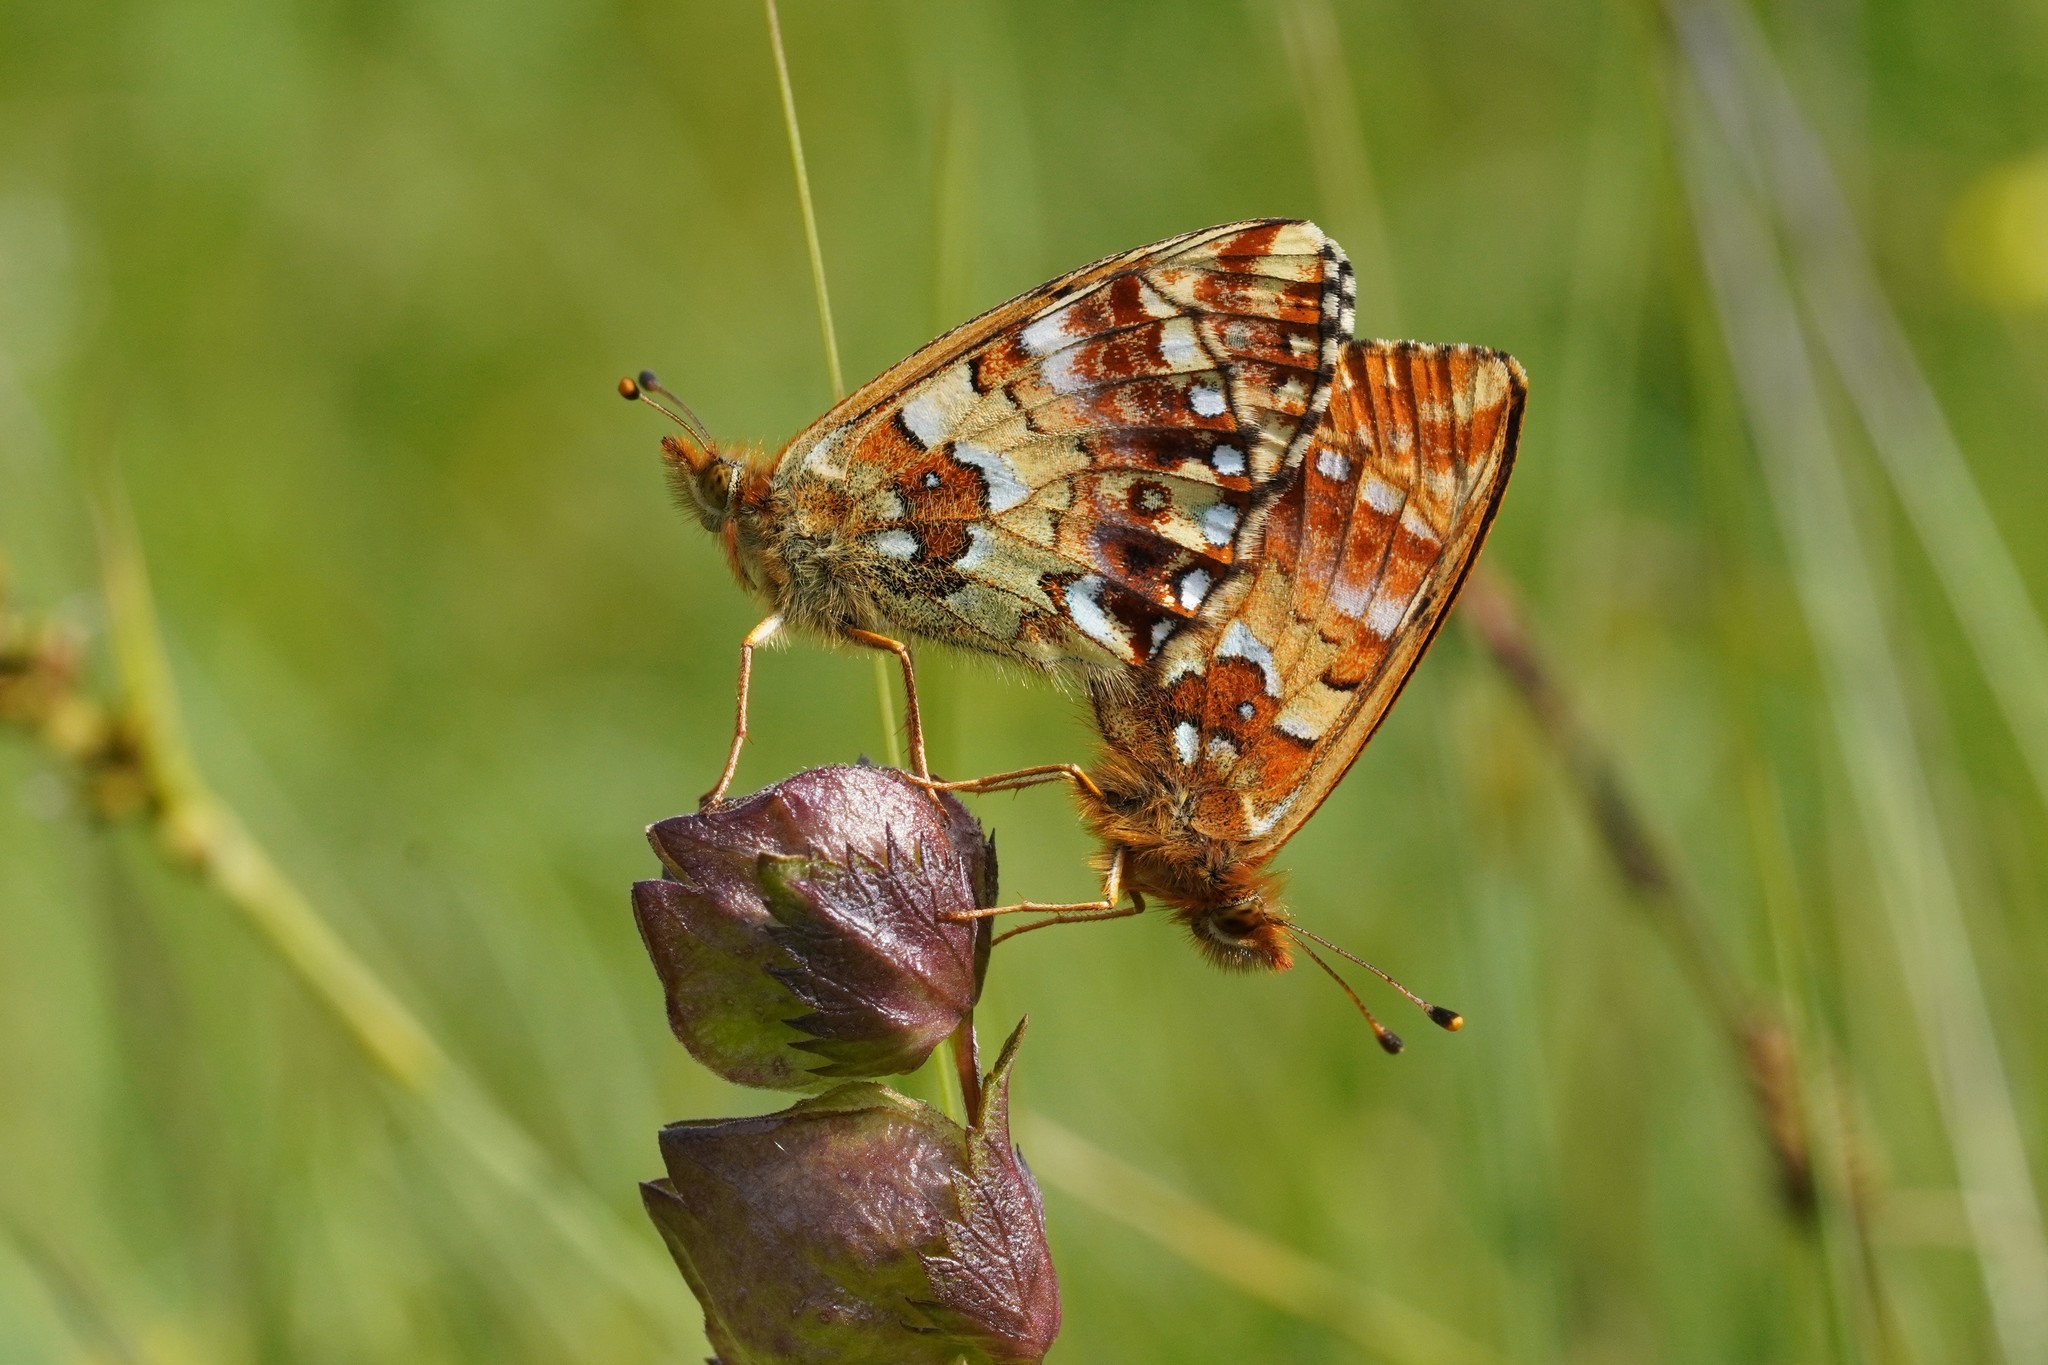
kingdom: Animalia
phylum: Arthropoda
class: Insecta
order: Lepidoptera
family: Nymphalidae
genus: Boloria
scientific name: Boloria aquilonaris
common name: Cranberry fritillary
